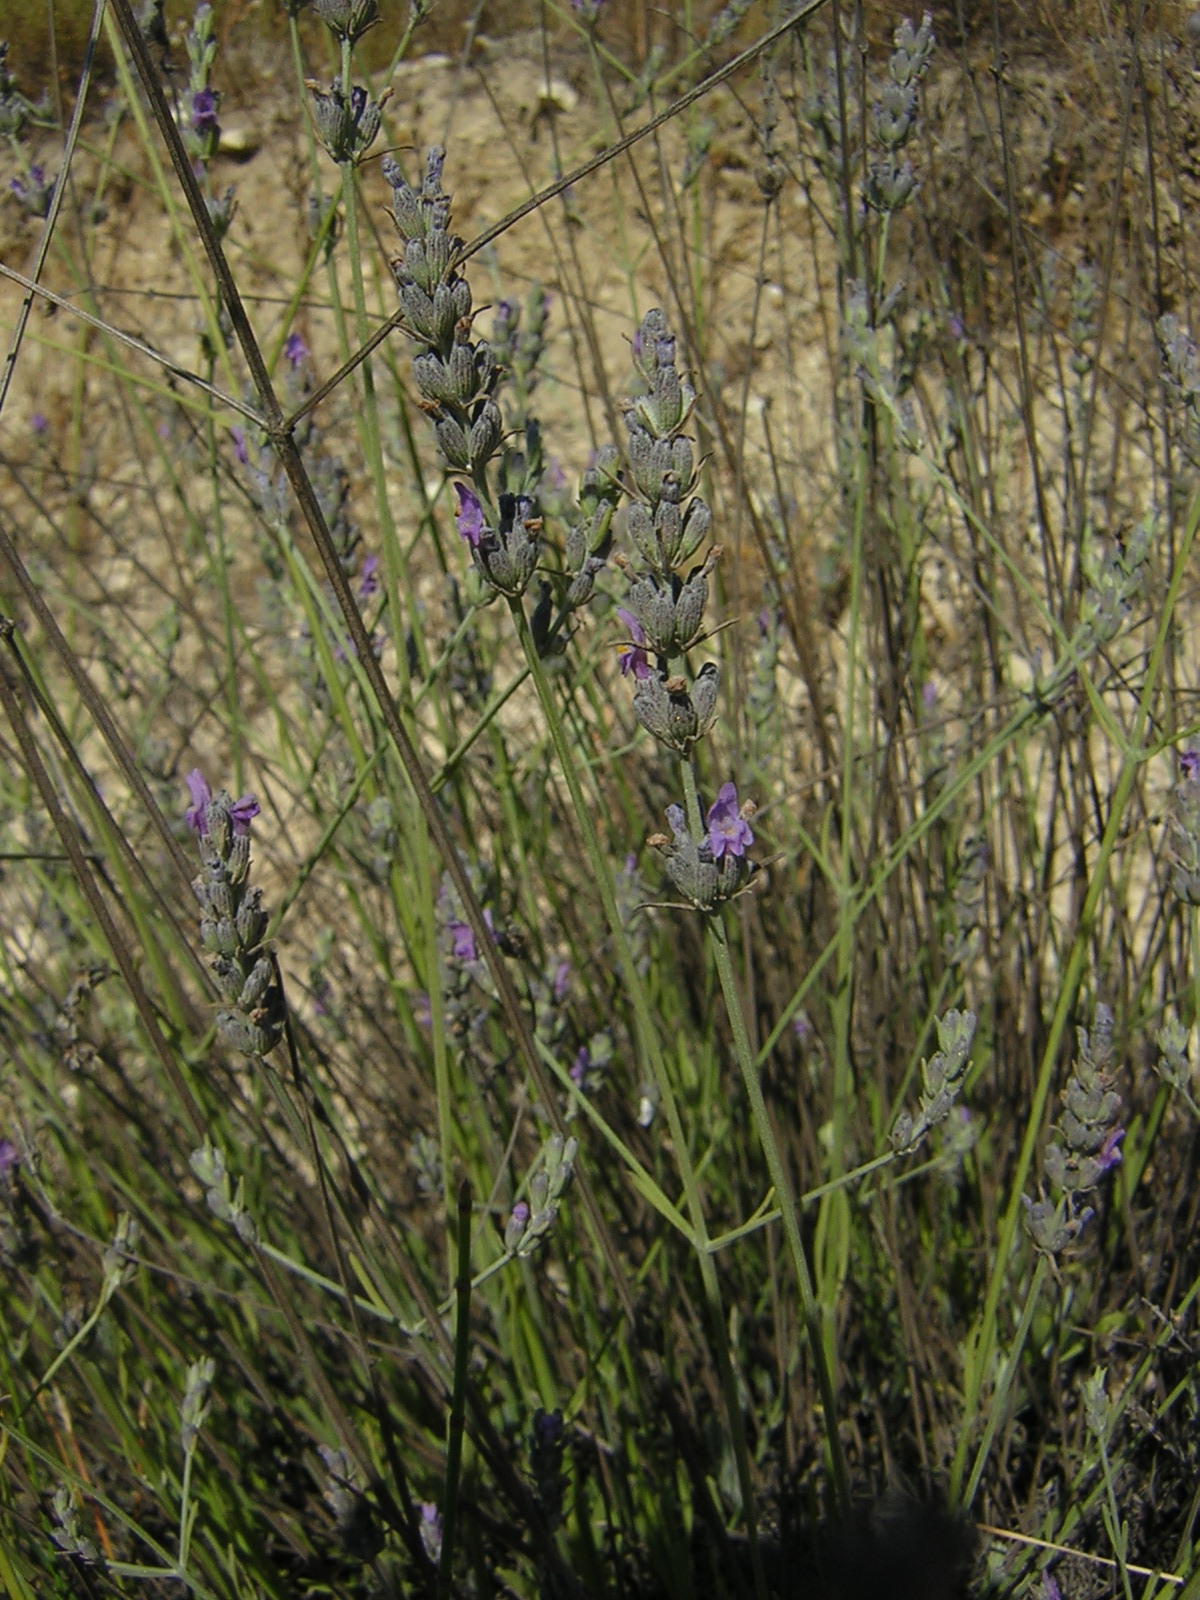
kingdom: Plantae
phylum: Tracheophyta
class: Magnoliopsida
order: Lamiales
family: Lamiaceae
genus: Lavandula
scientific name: Lavandula latifolia
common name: Spike lavendar
